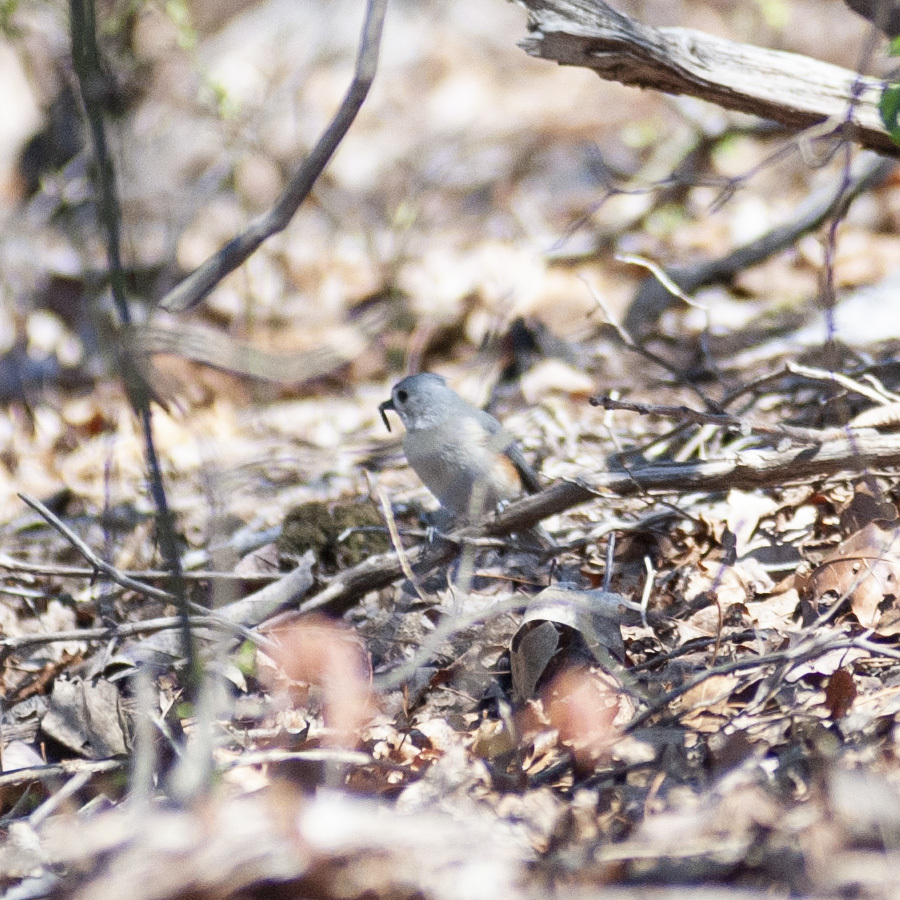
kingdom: Animalia
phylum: Chordata
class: Aves
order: Passeriformes
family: Paridae
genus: Baeolophus
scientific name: Baeolophus bicolor
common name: Tufted titmouse
